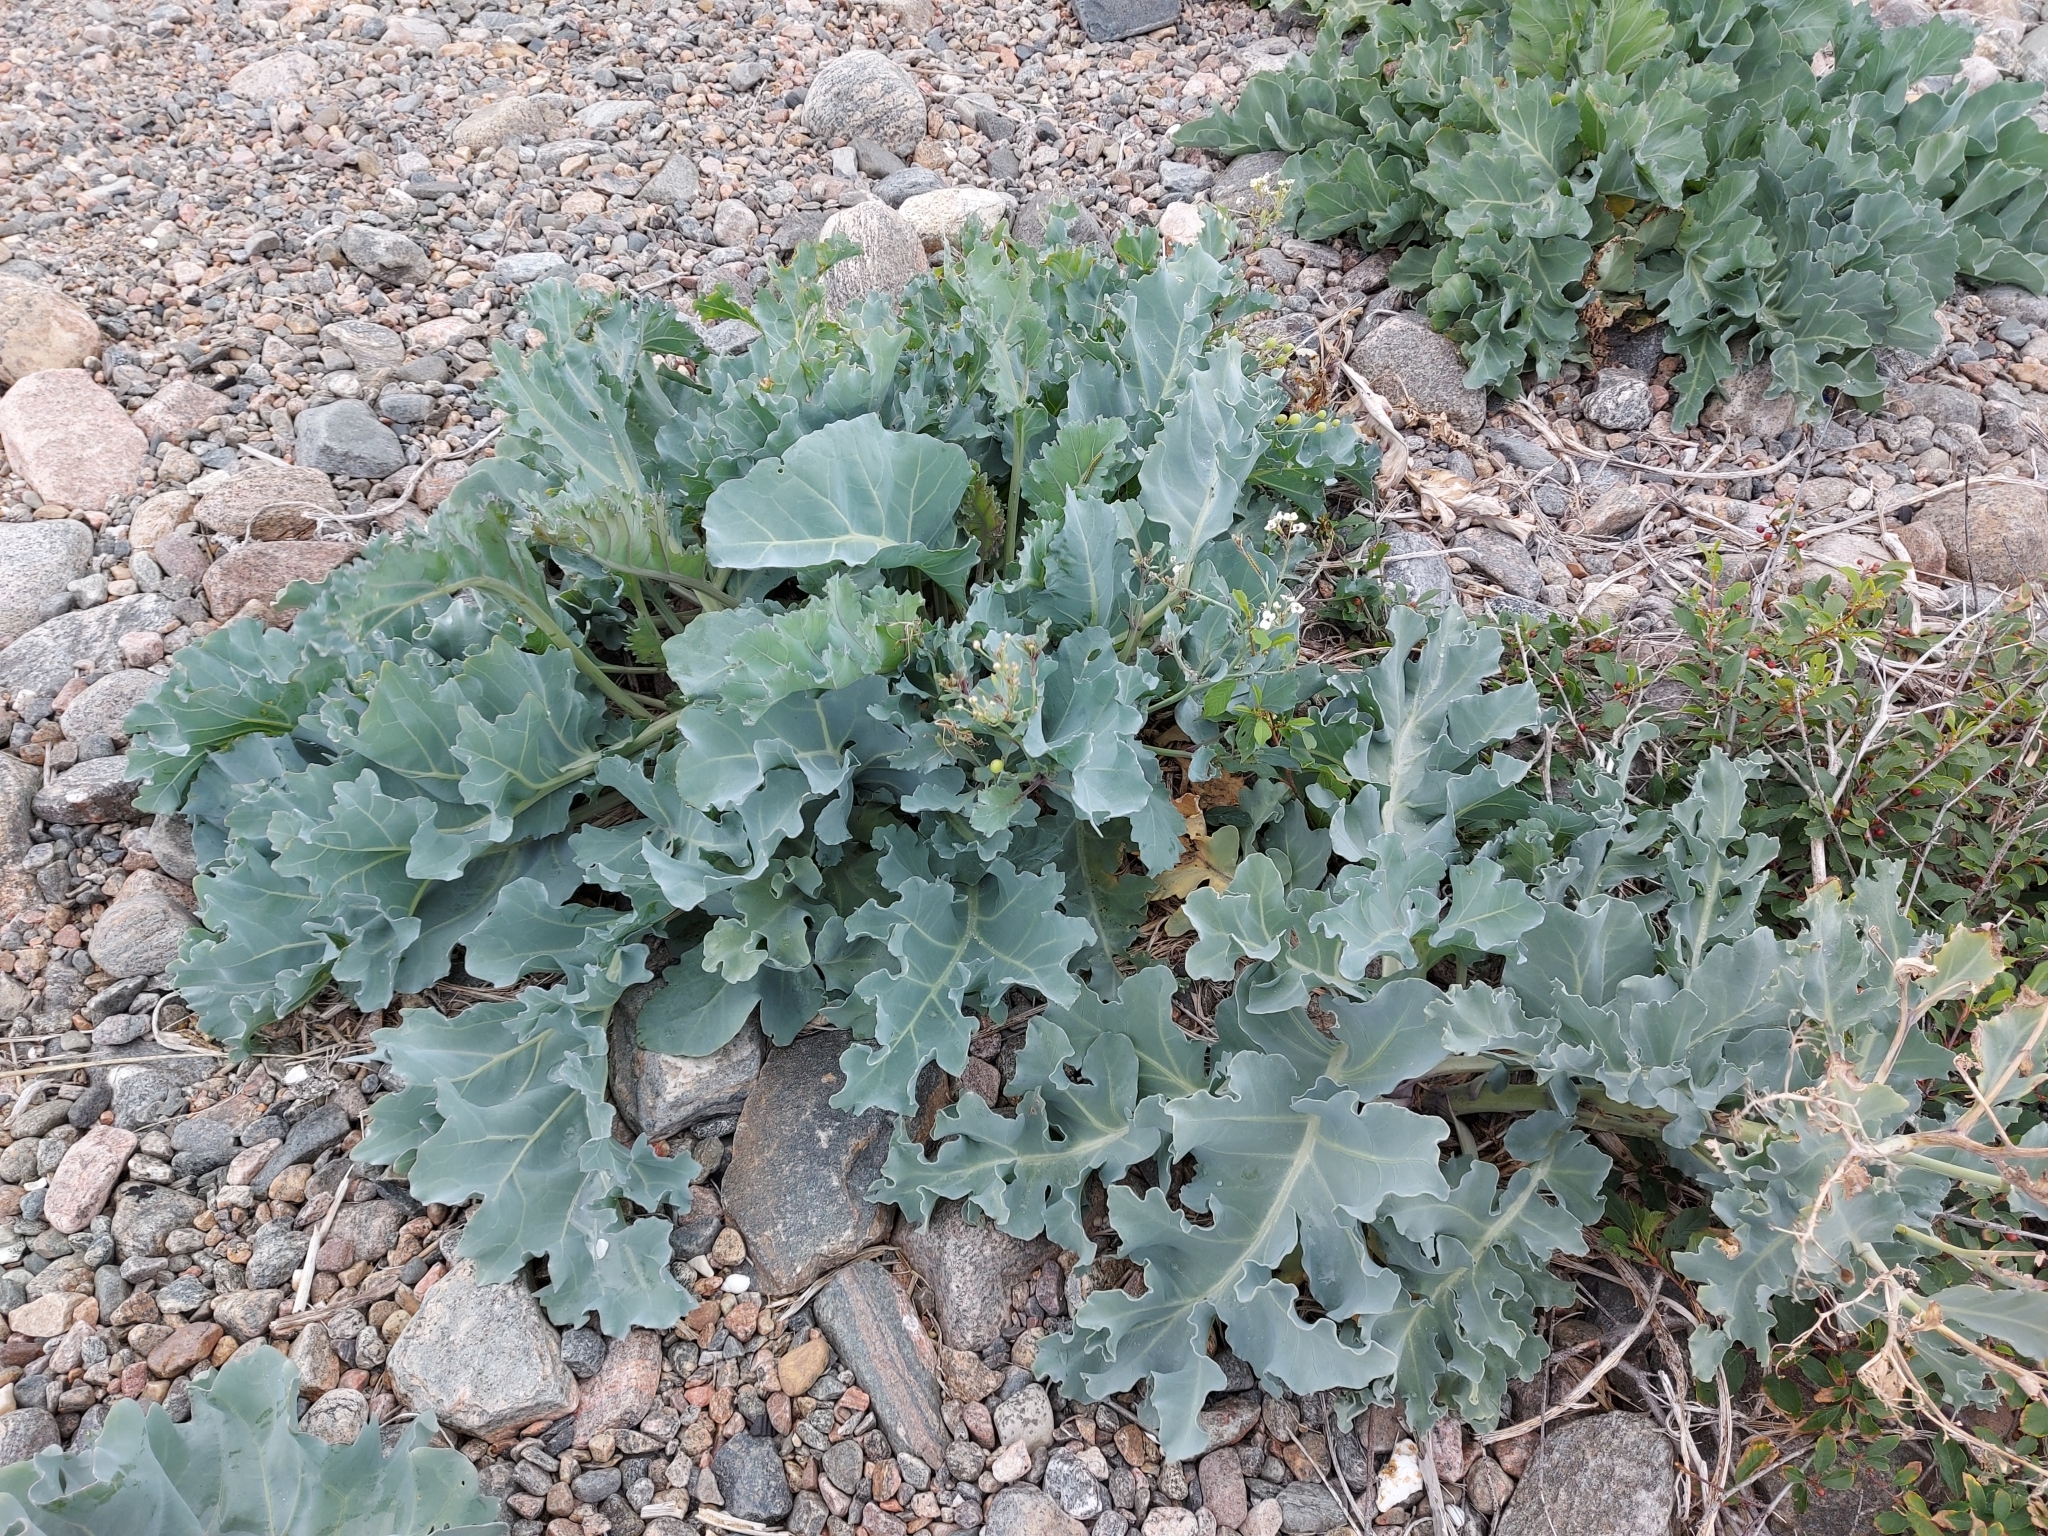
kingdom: Plantae
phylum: Tracheophyta
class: Magnoliopsida
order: Brassicales
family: Brassicaceae
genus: Crambe
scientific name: Crambe maritima
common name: Sea-kale
